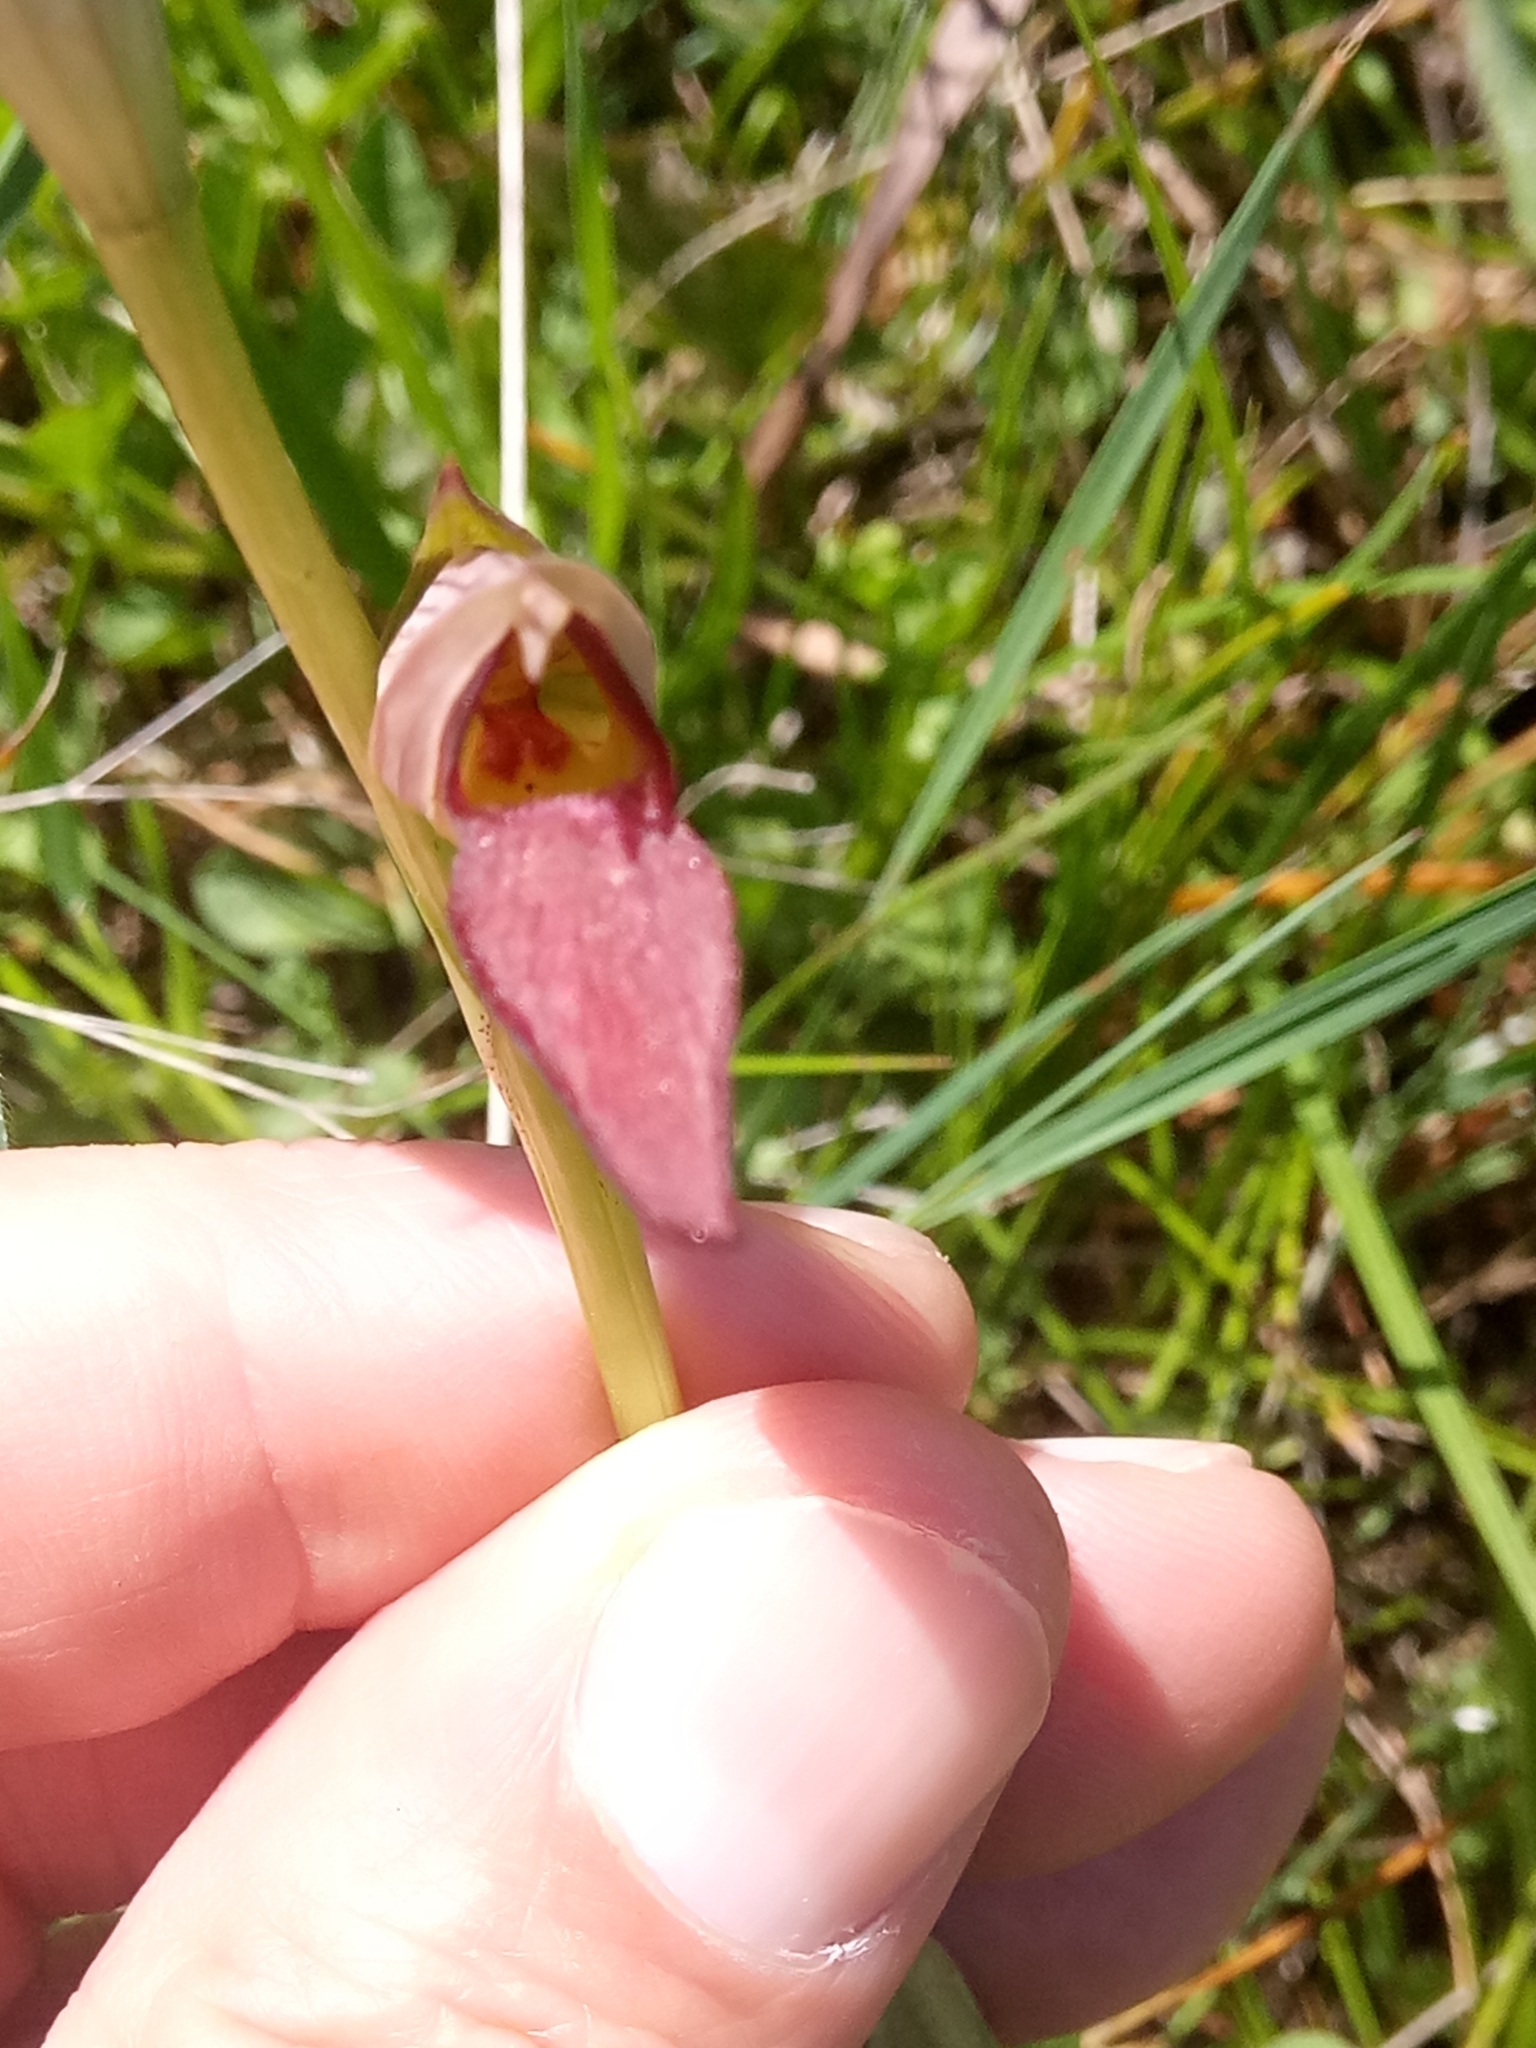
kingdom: Plantae
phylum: Tracheophyta
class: Liliopsida
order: Asparagales
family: Orchidaceae
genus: Serapias
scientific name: Serapias lingua
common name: Tongue-orchid
